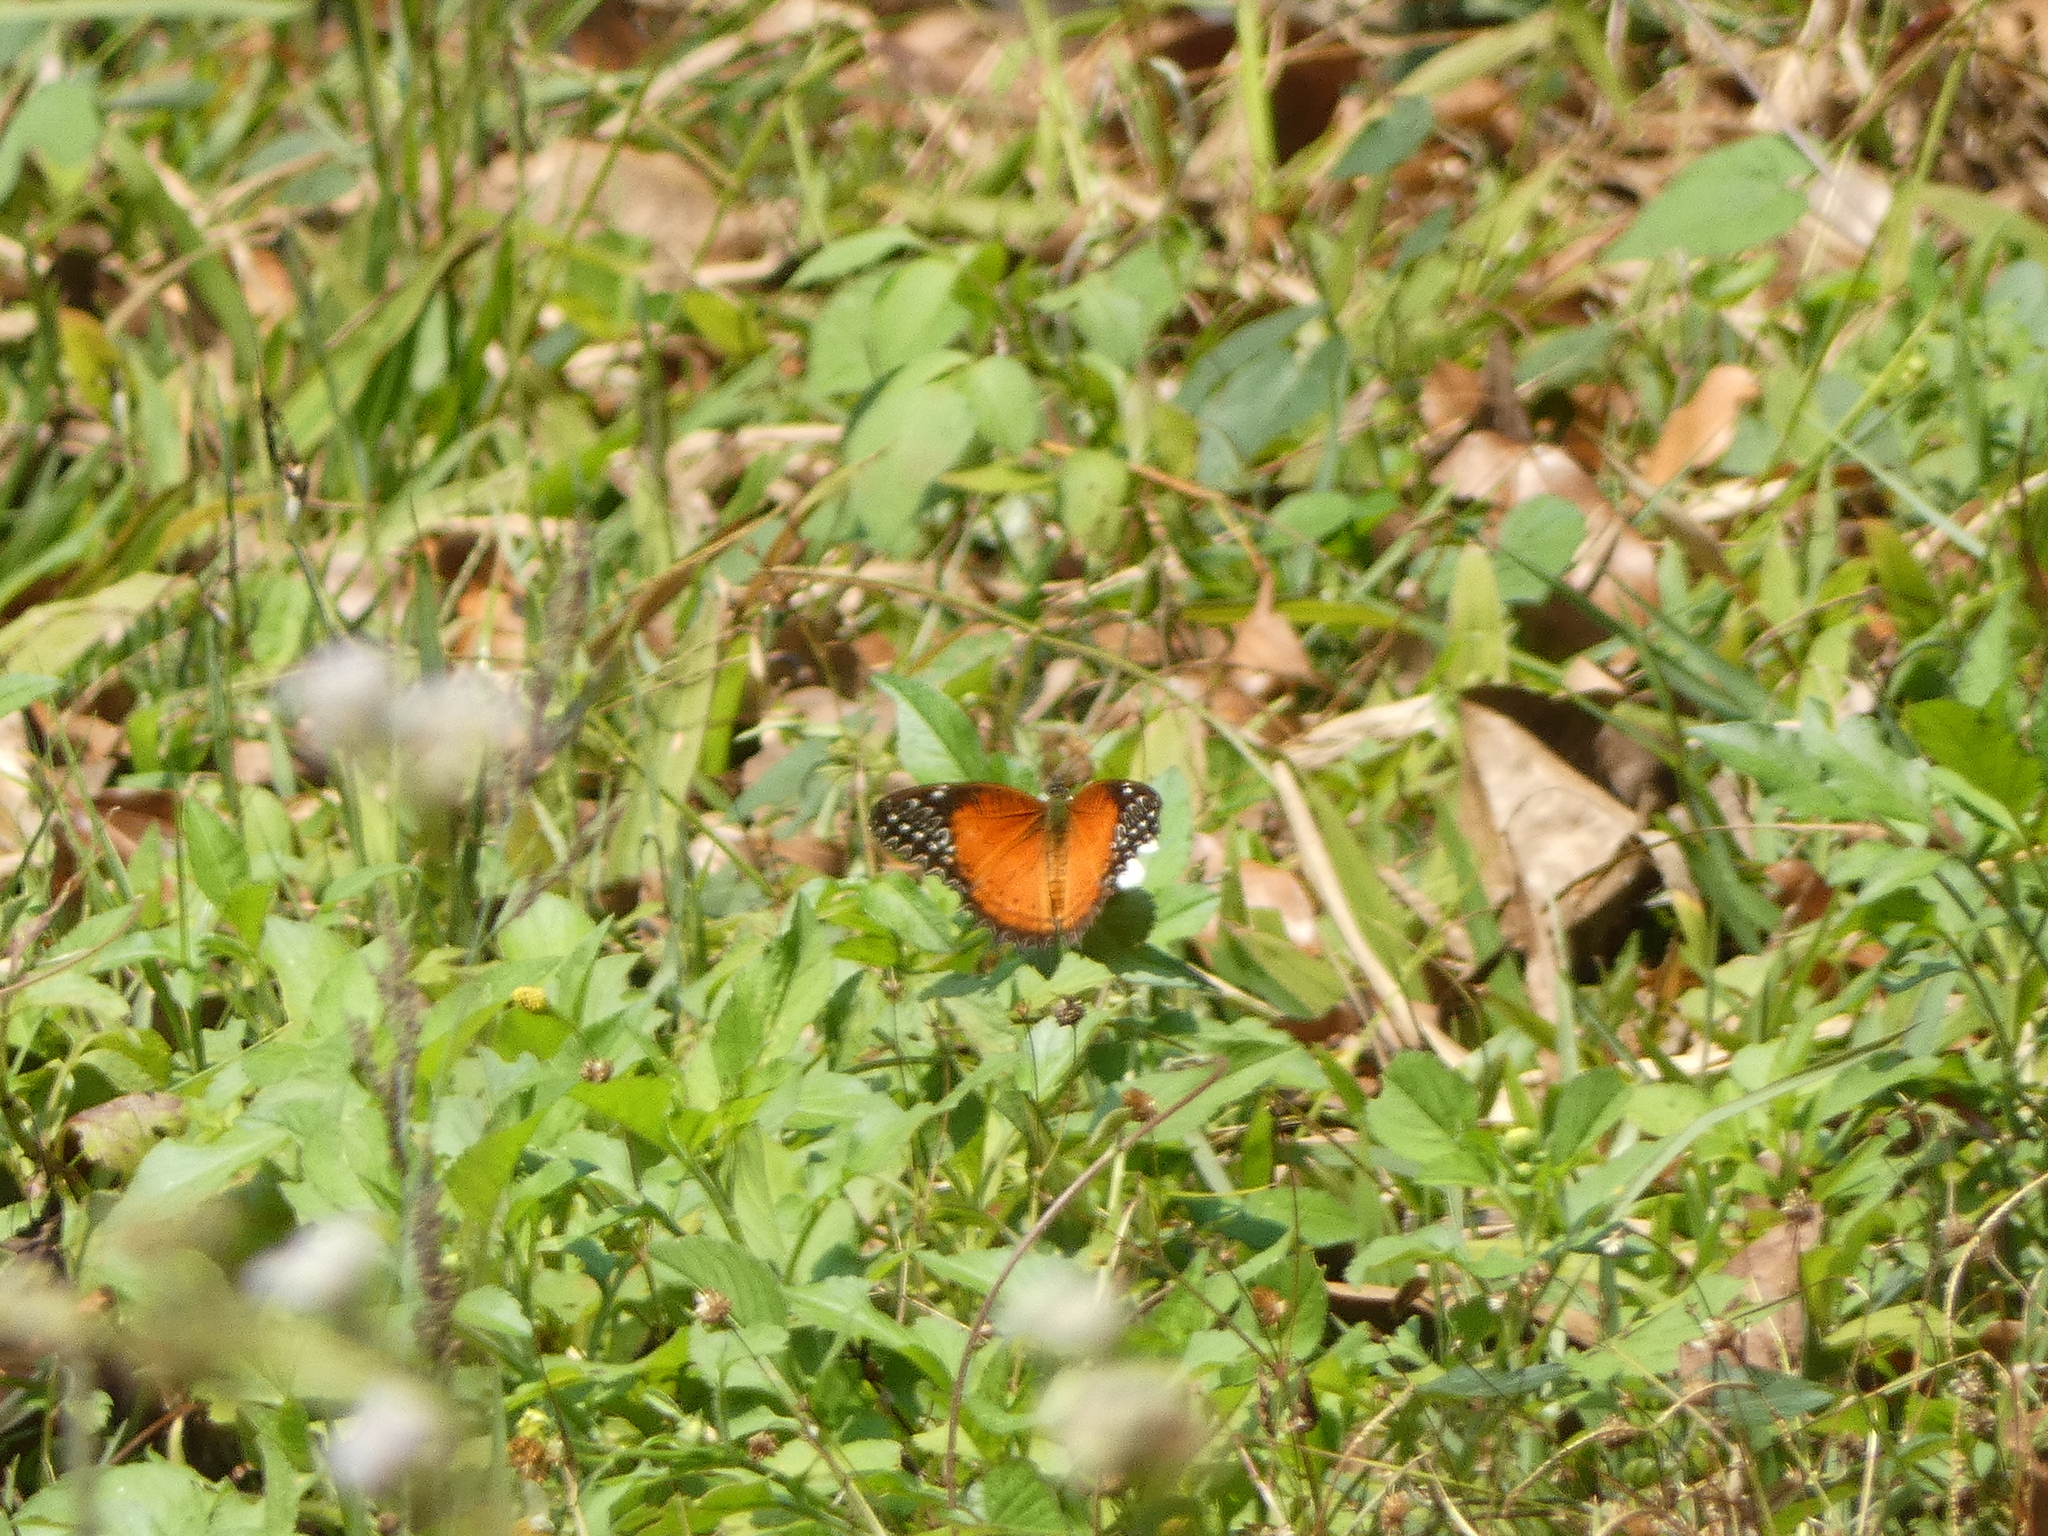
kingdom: Animalia
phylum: Arthropoda
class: Insecta
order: Lepidoptera
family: Nymphalidae
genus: Cethosia
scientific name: Cethosia biblis
